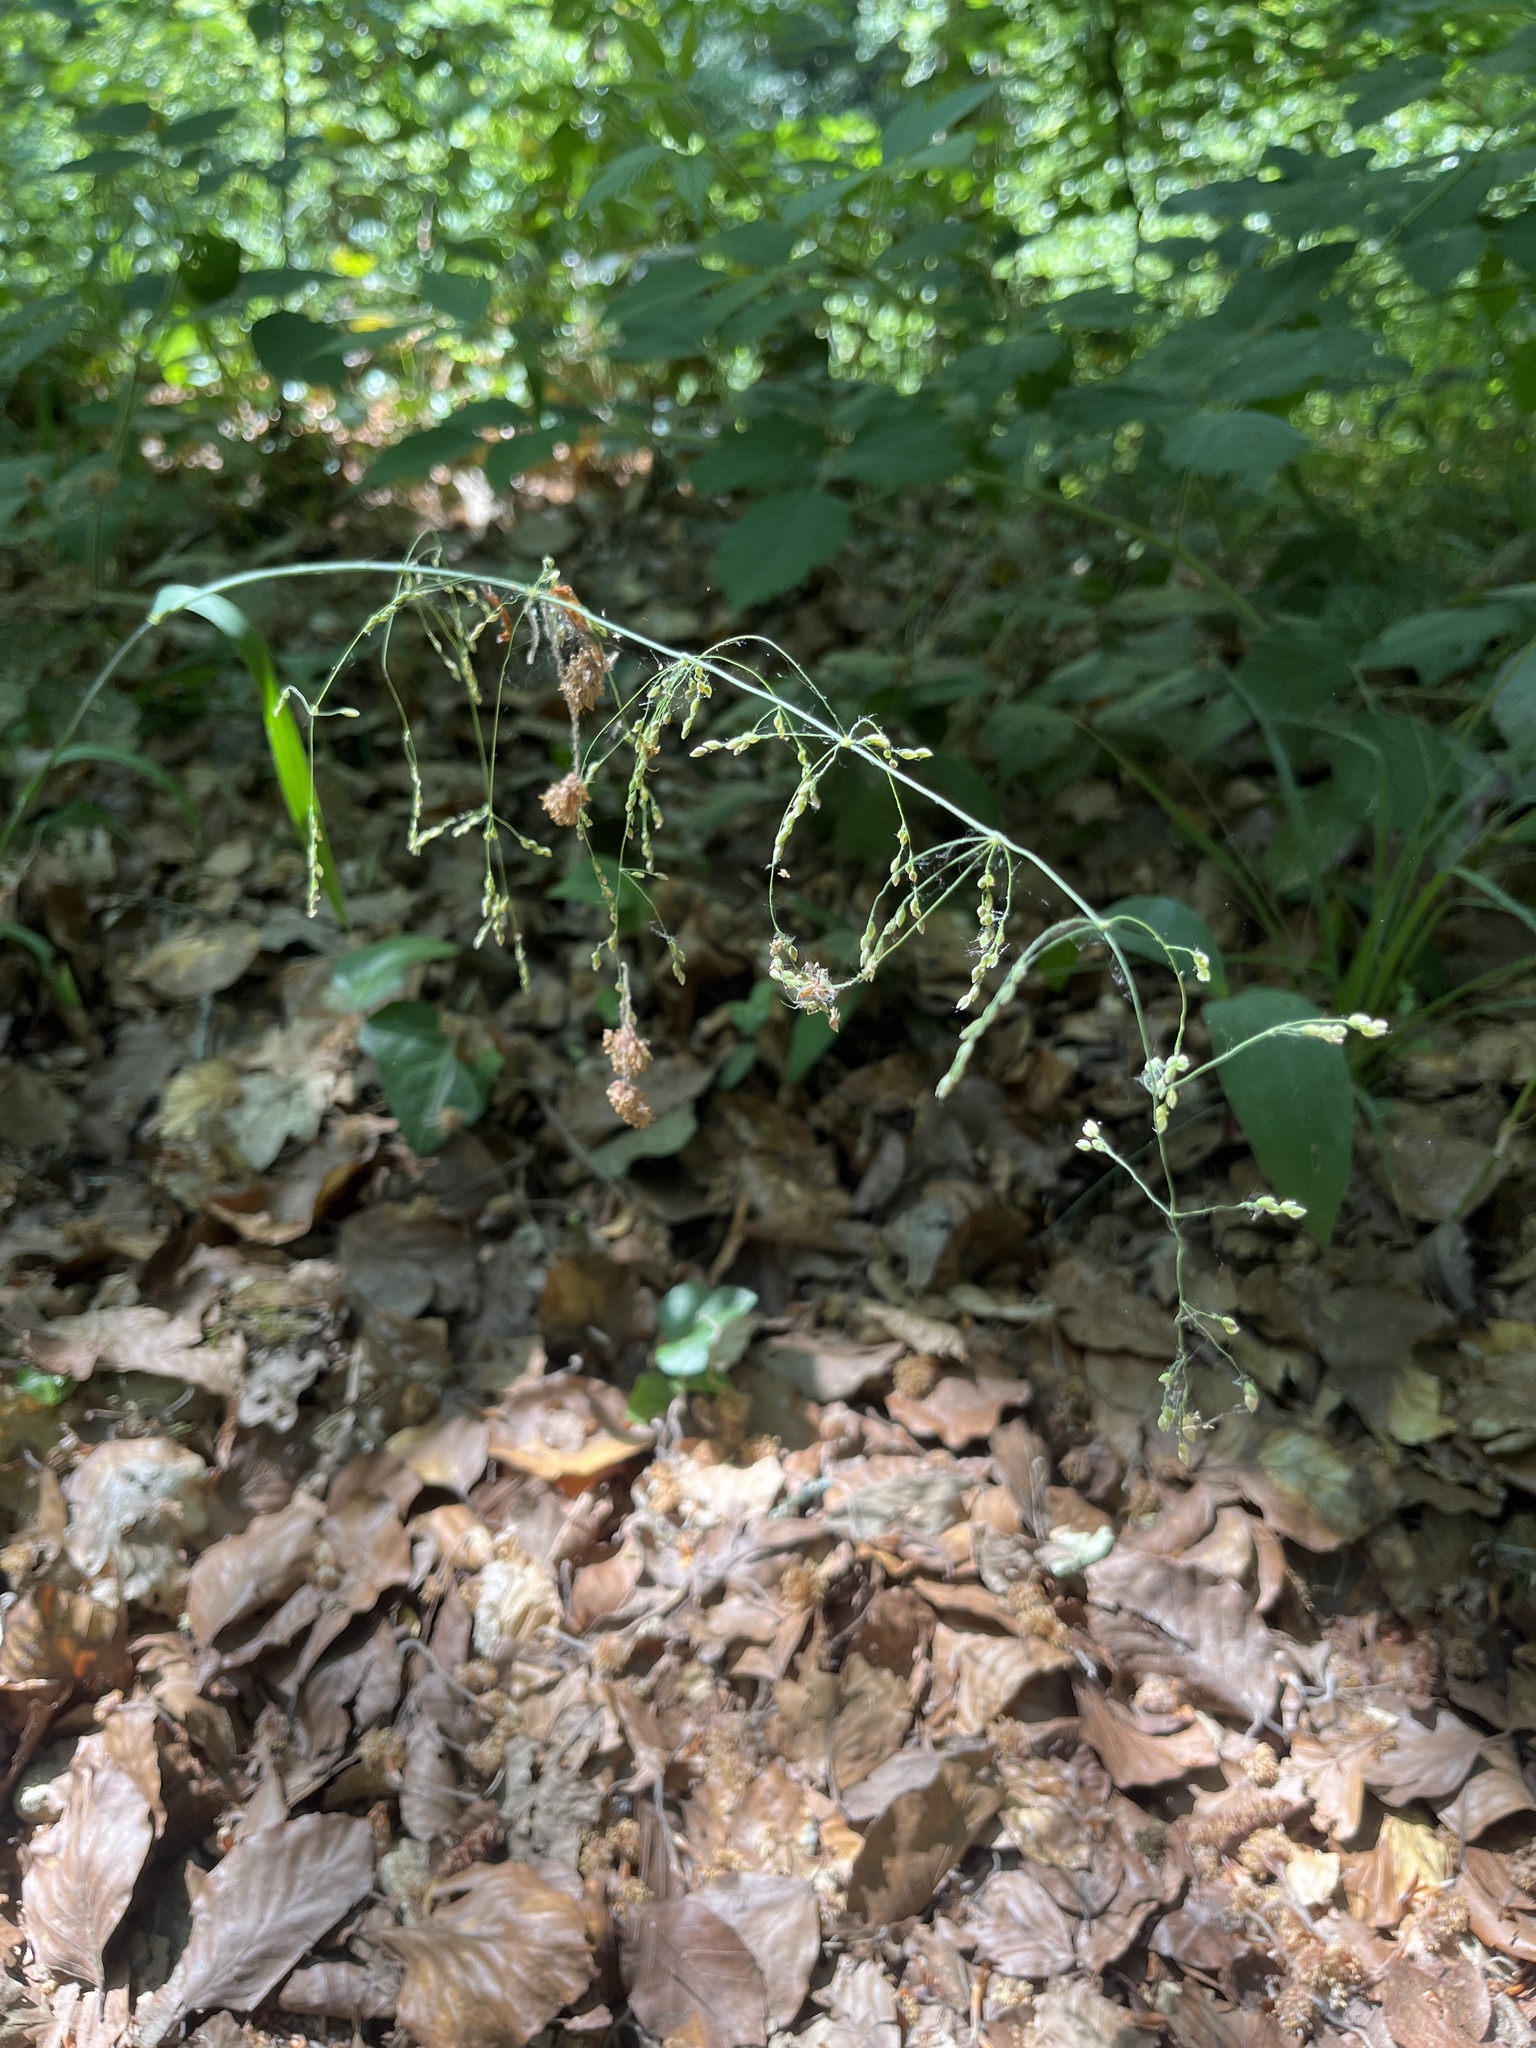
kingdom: Plantae
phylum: Tracheophyta
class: Liliopsida
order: Poales
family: Poaceae
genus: Milium
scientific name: Milium effusum
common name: Wood millet
